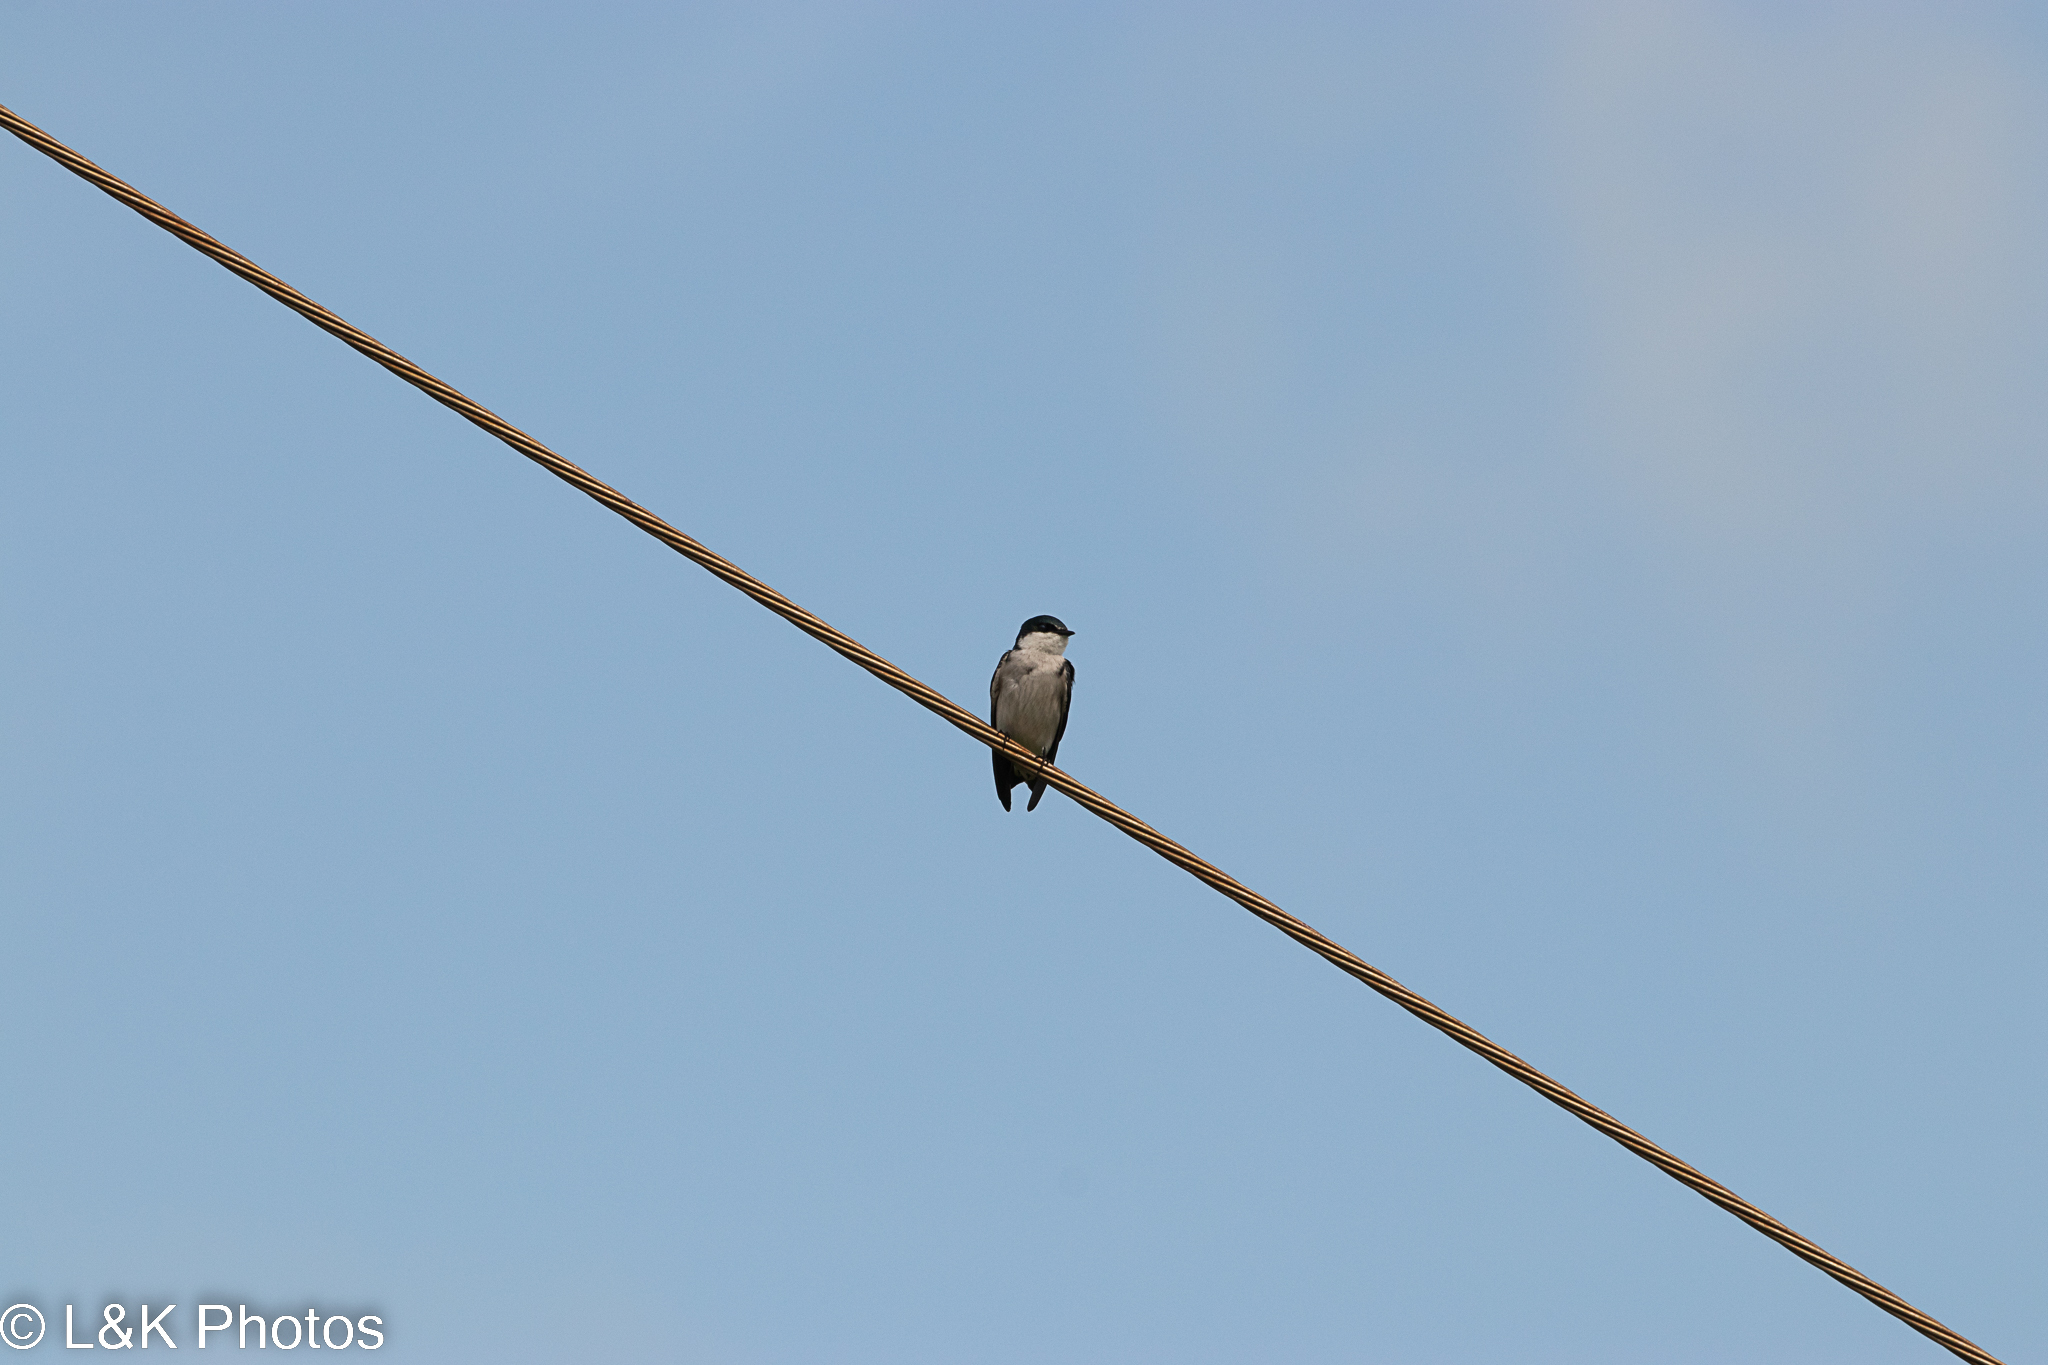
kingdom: Animalia
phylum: Chordata
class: Aves
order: Passeriformes
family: Hirundinidae
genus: Tachycineta
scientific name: Tachycineta albilinea
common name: Mangrove swallow
